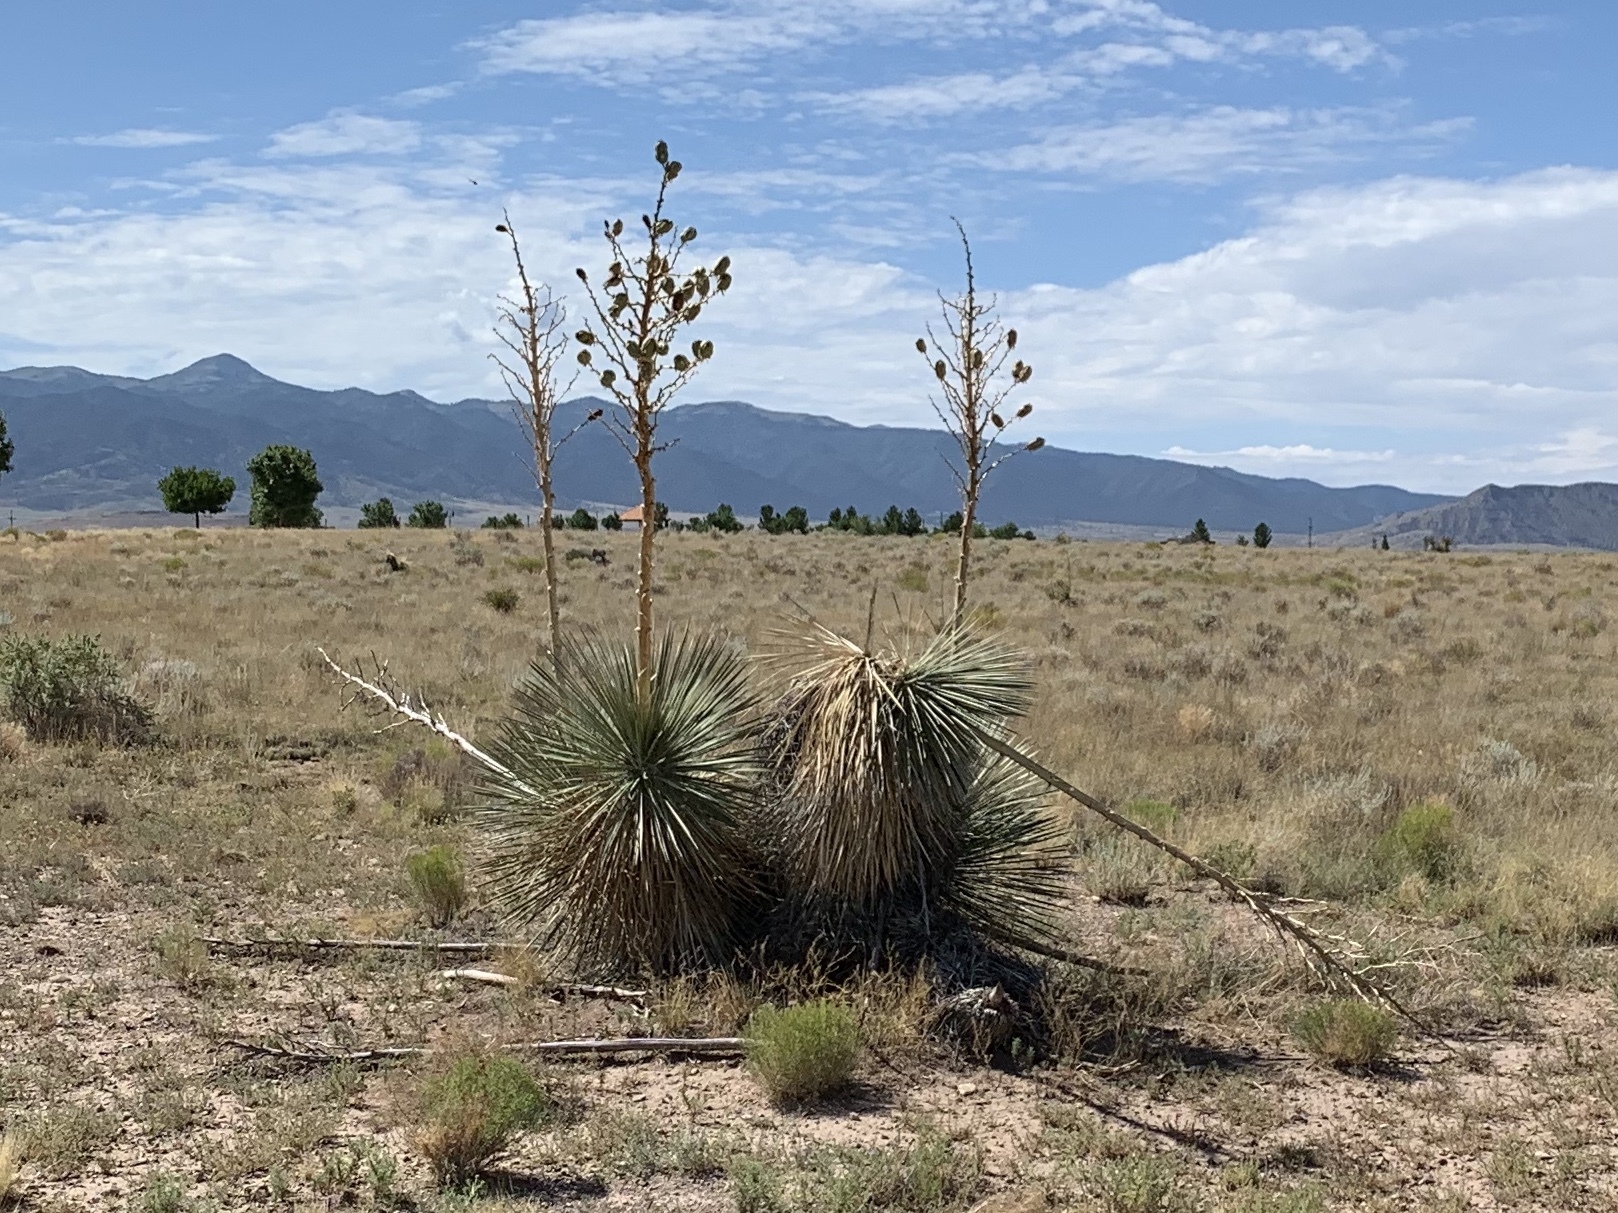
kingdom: Plantae
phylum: Tracheophyta
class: Liliopsida
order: Asparagales
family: Asparagaceae
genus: Yucca
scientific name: Yucca elata
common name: Palmella
